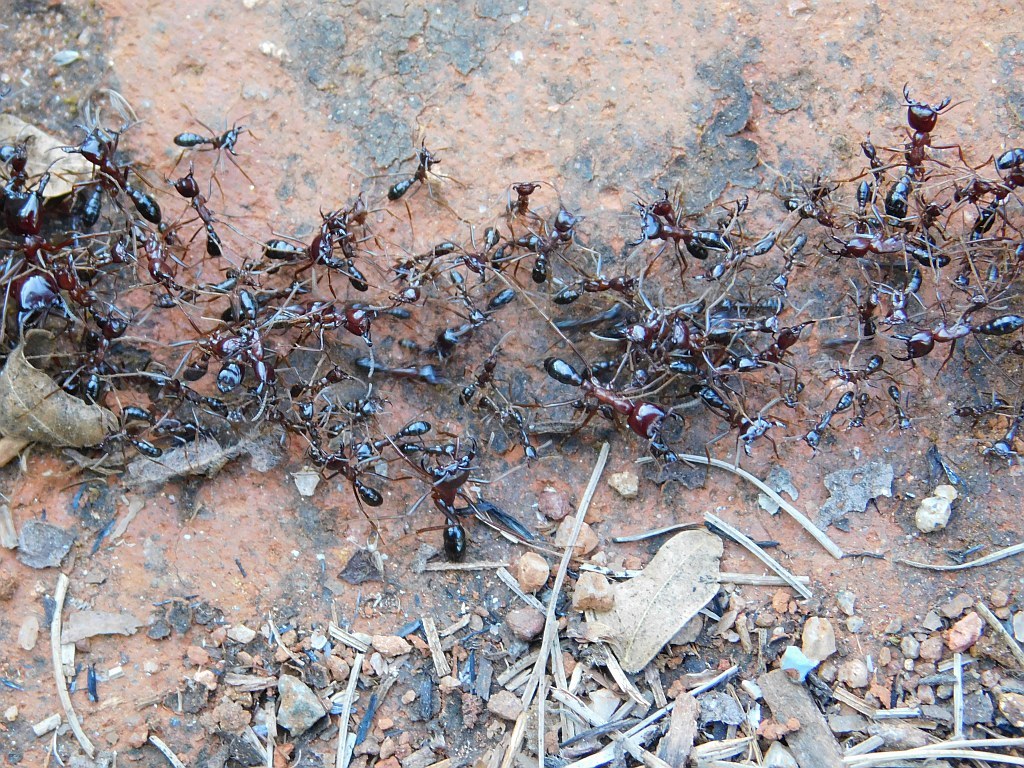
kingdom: Animalia
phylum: Arthropoda
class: Insecta
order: Hymenoptera
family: Formicidae
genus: Dorylus
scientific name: Dorylus nigricans
